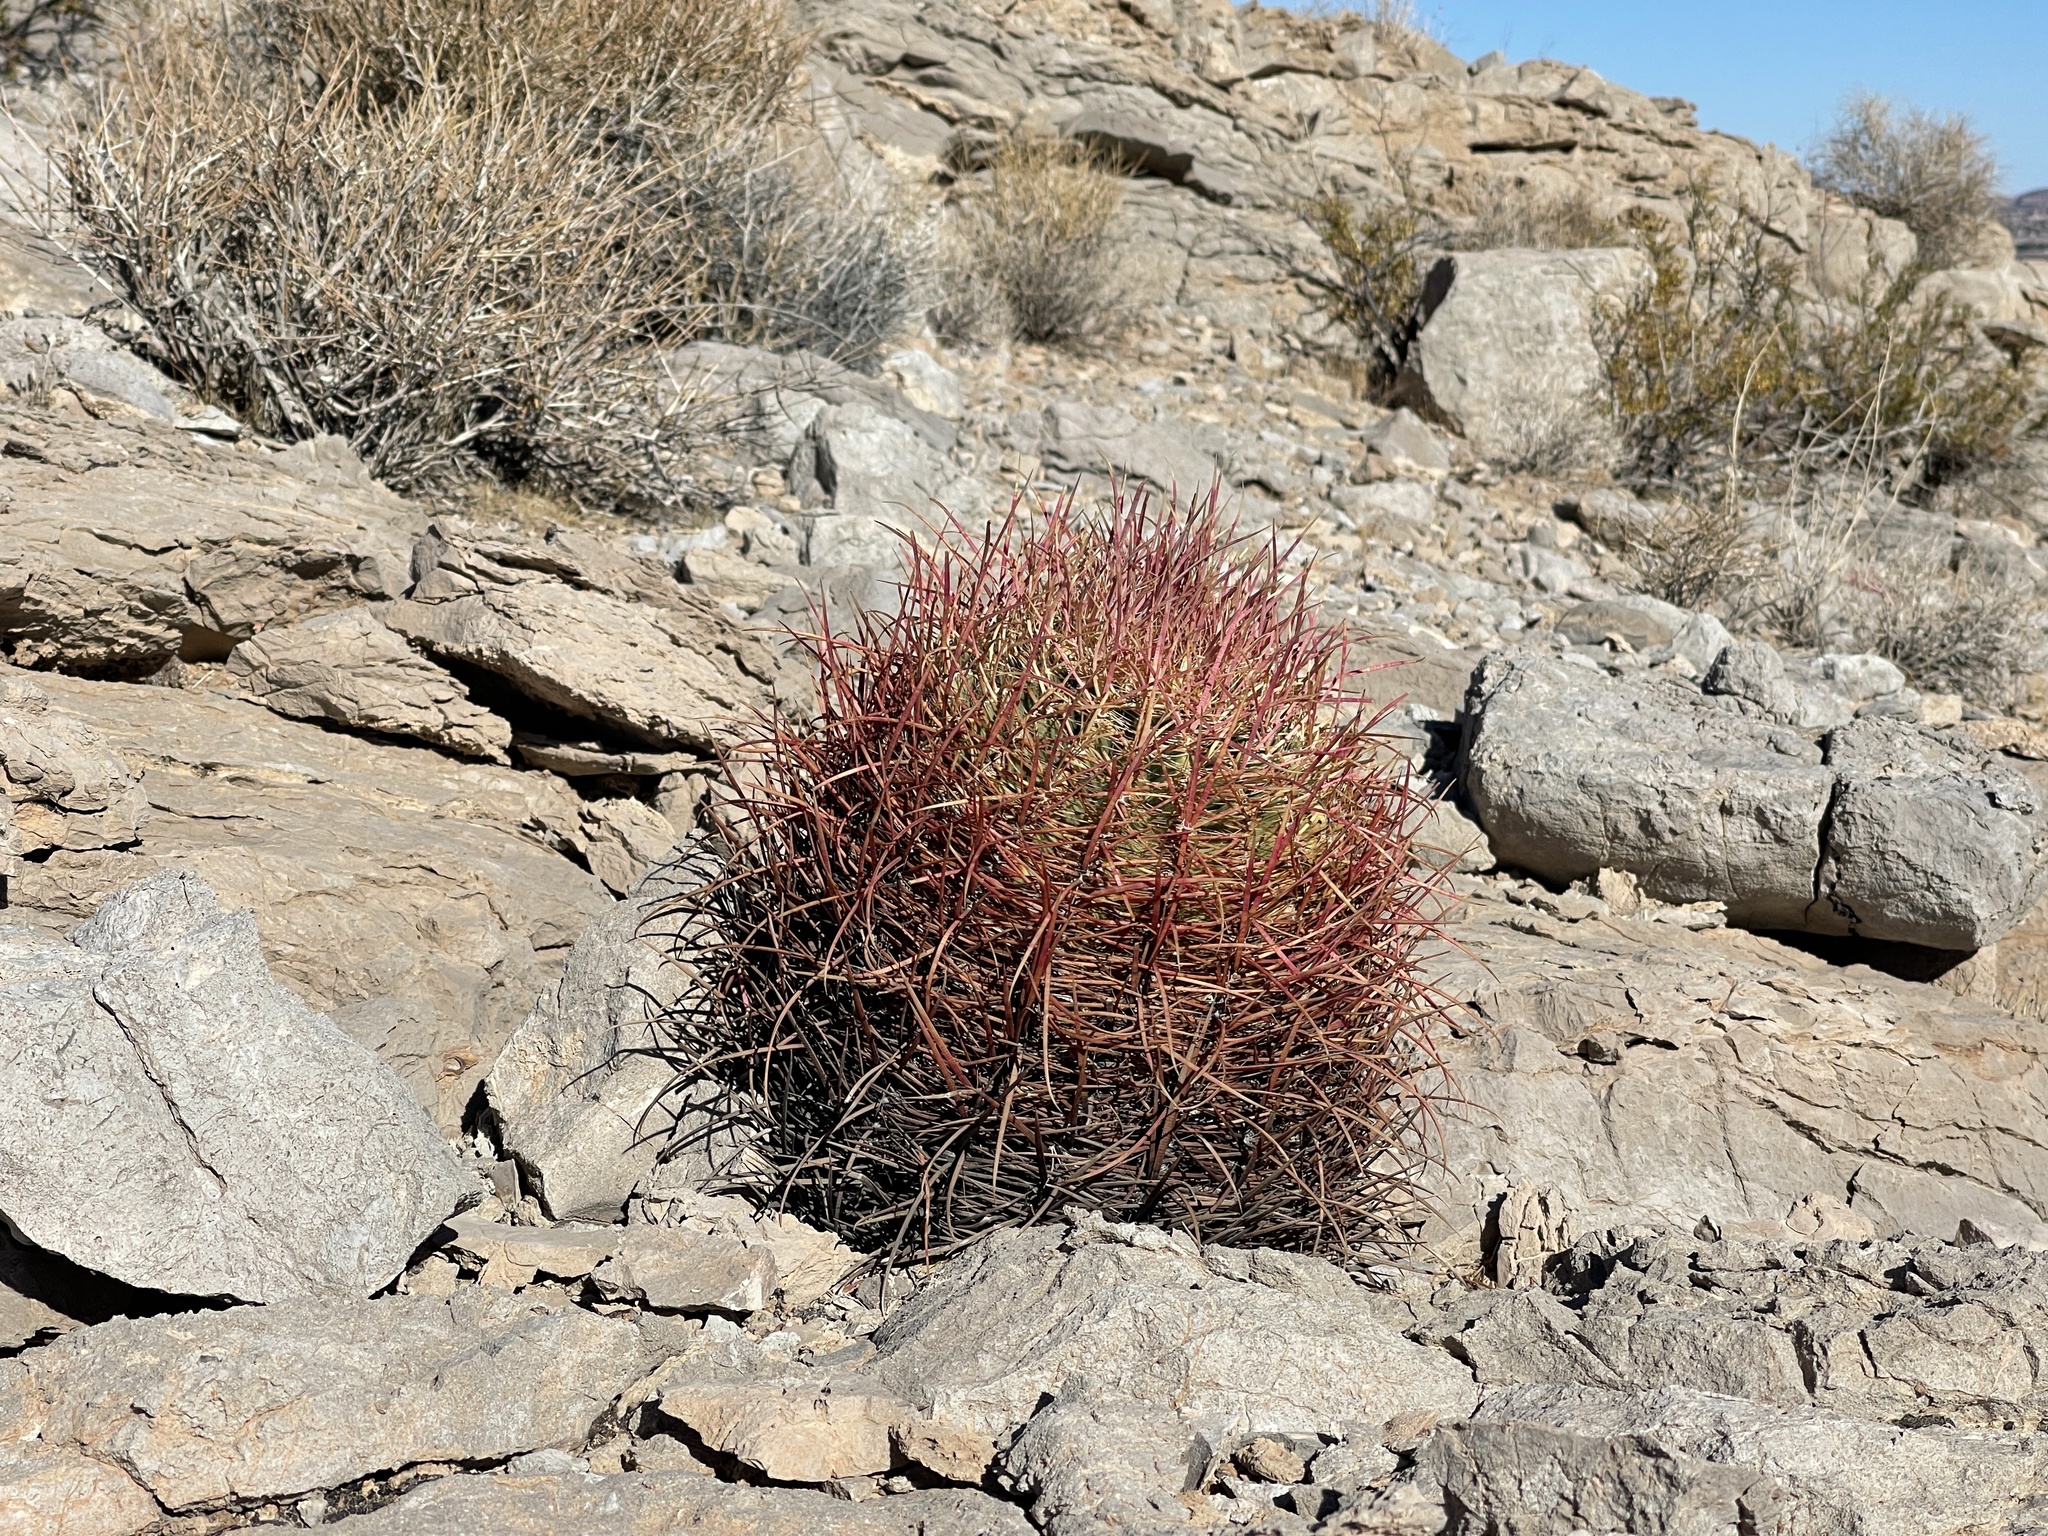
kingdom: Plantae
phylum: Tracheophyta
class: Magnoliopsida
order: Caryophyllales
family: Cactaceae
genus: Ferocactus
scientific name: Ferocactus cylindraceus
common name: California barrel cactus
